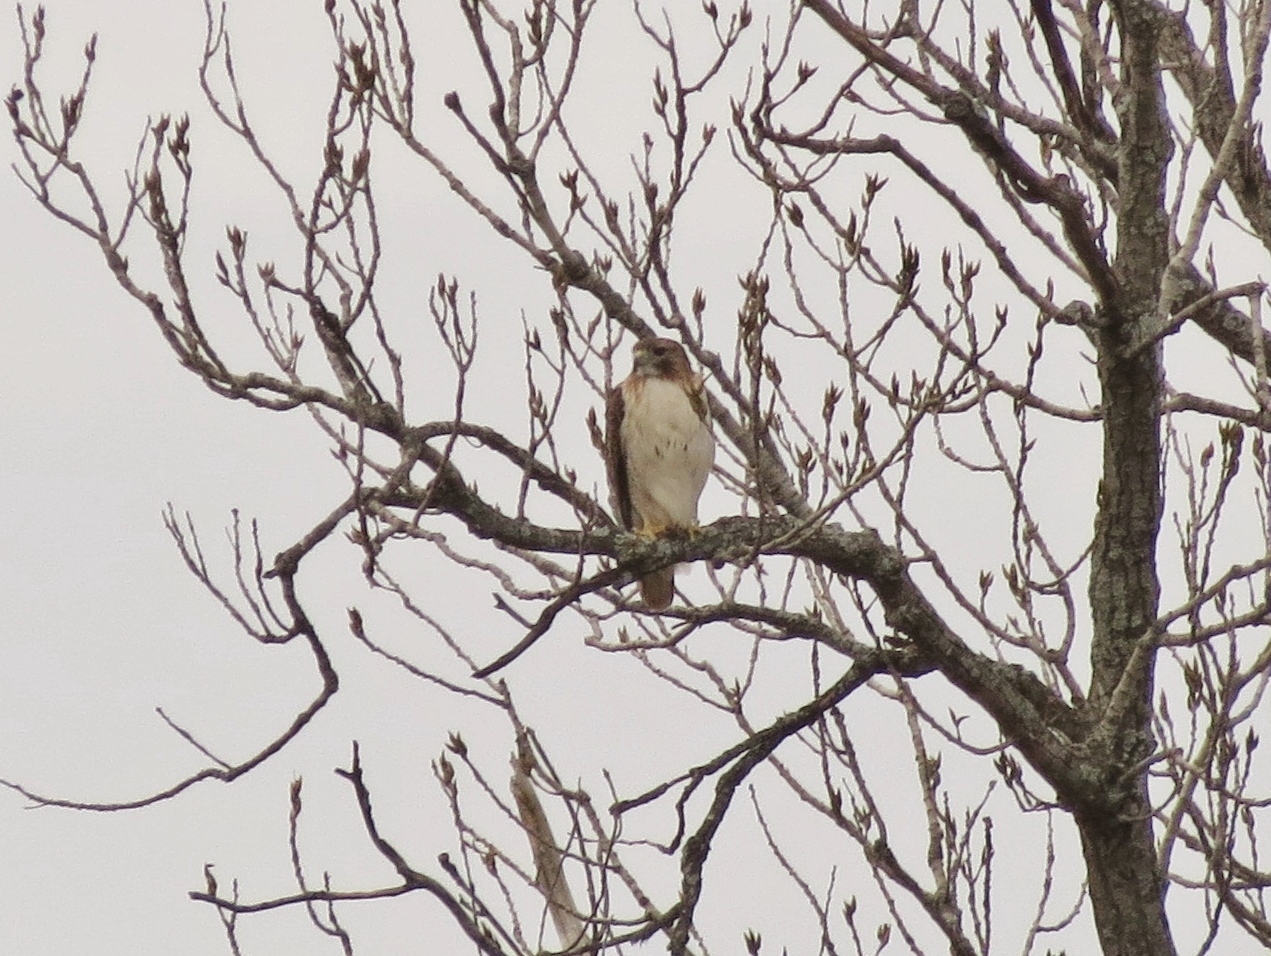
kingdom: Animalia
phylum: Chordata
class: Aves
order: Accipitriformes
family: Accipitridae
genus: Buteo
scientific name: Buteo jamaicensis
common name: Red-tailed hawk
